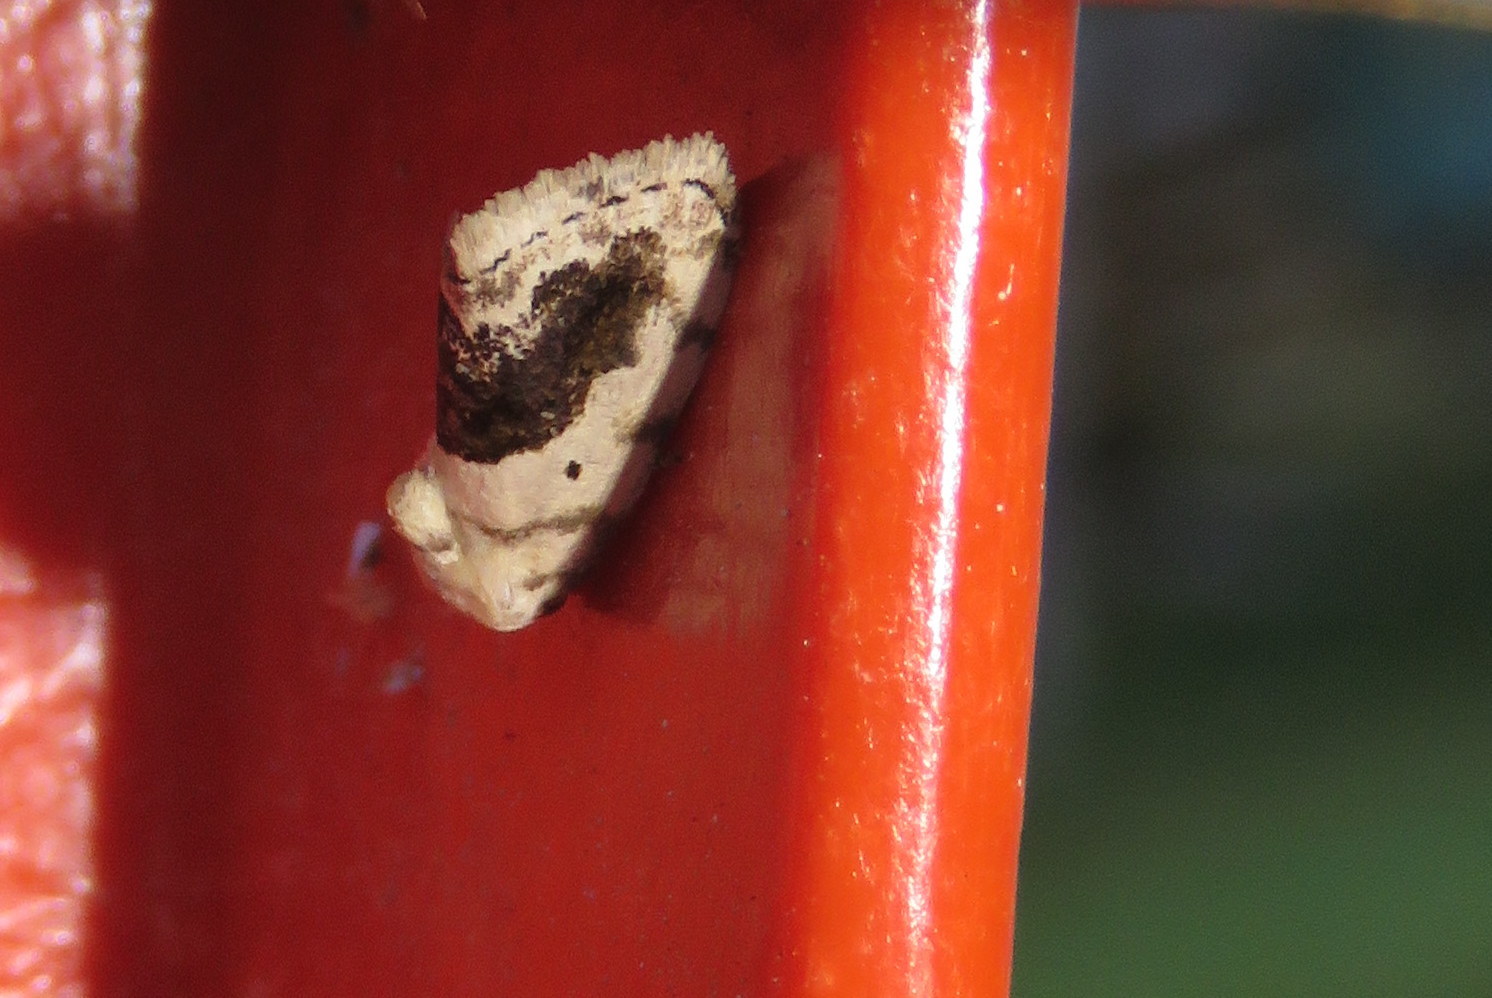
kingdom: Animalia
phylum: Arthropoda
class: Insecta
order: Lepidoptera
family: Noctuidae
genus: Acontia
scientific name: Acontia erastrioides
